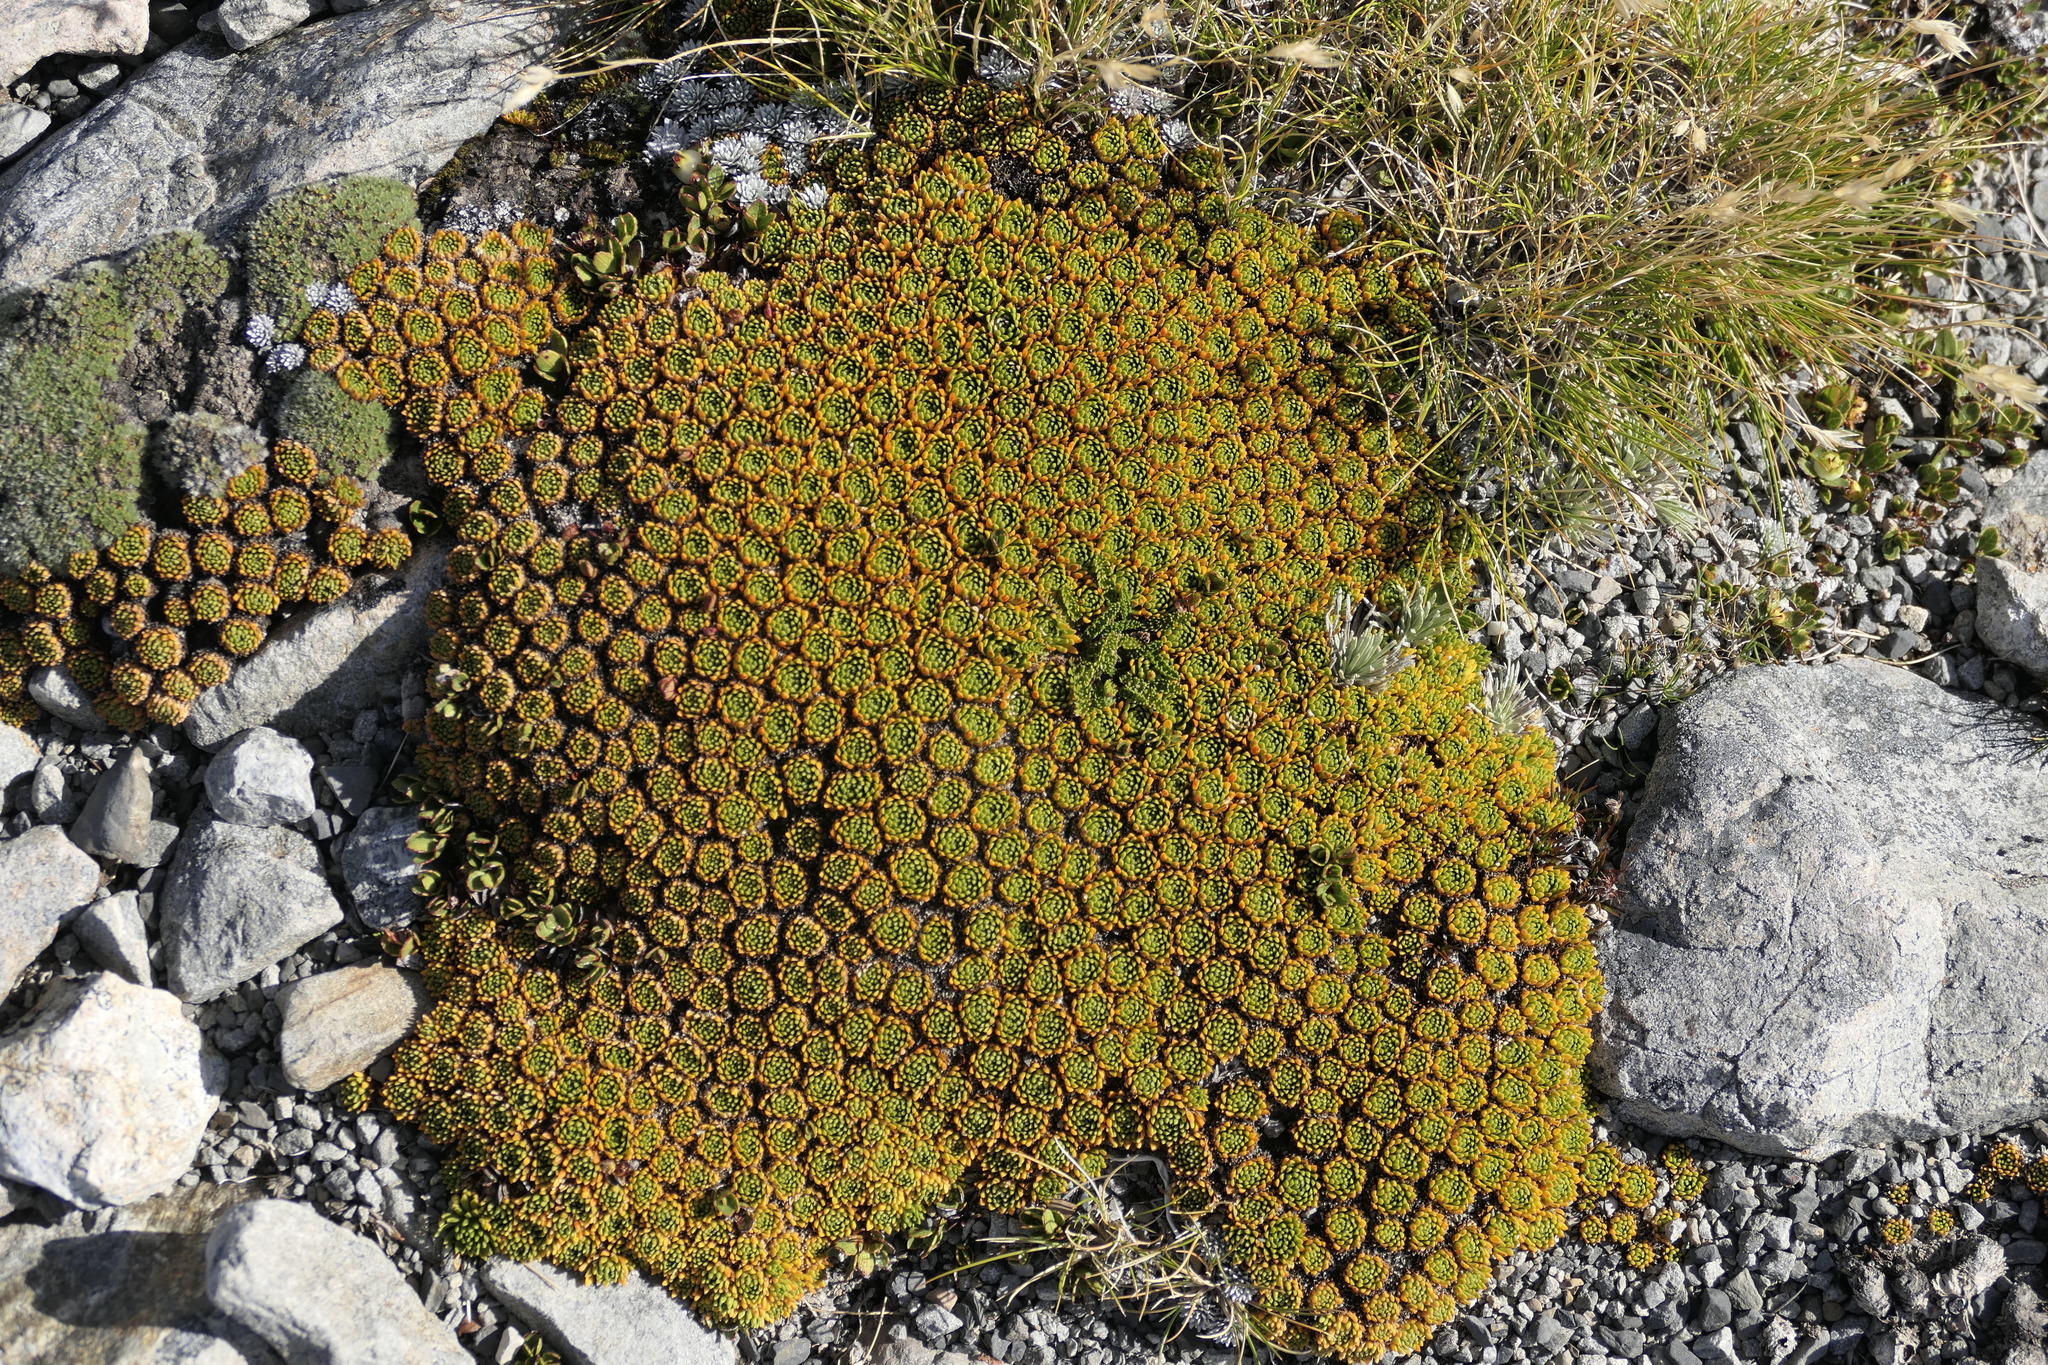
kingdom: Plantae
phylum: Tracheophyta
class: Magnoliopsida
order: Caryophyllales
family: Montiaceae
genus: Hectorella
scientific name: Hectorella caespitosa
